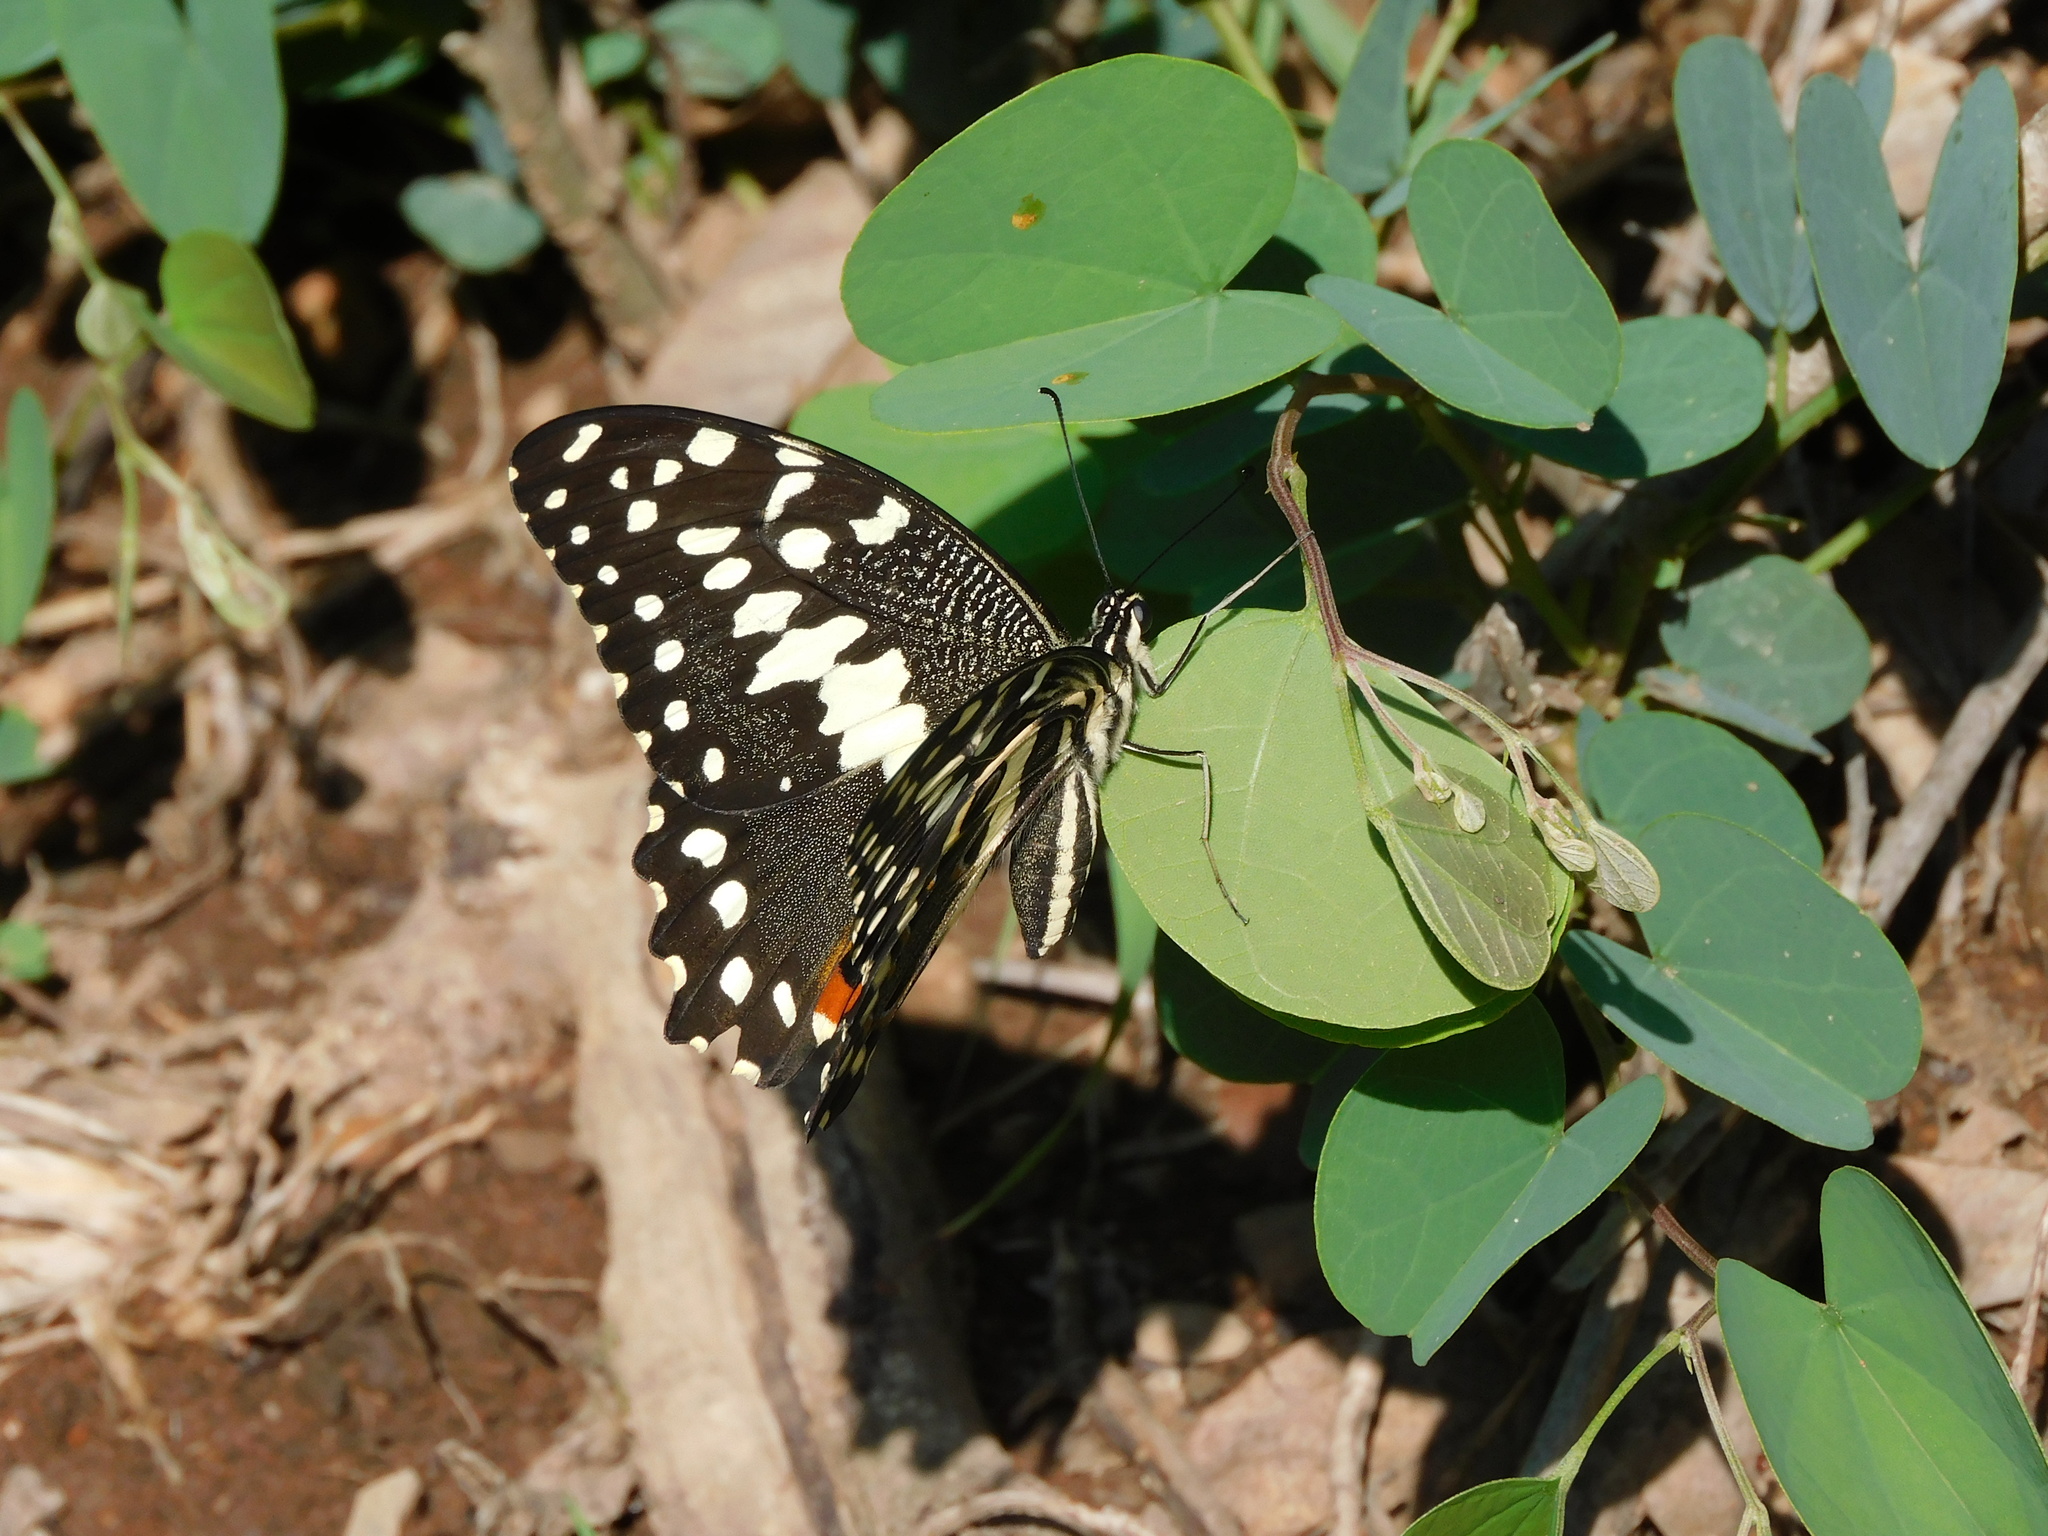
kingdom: Animalia
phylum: Arthropoda
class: Insecta
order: Lepidoptera
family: Papilionidae
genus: Papilio
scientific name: Papilio demodocus
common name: Christmas butterfly
